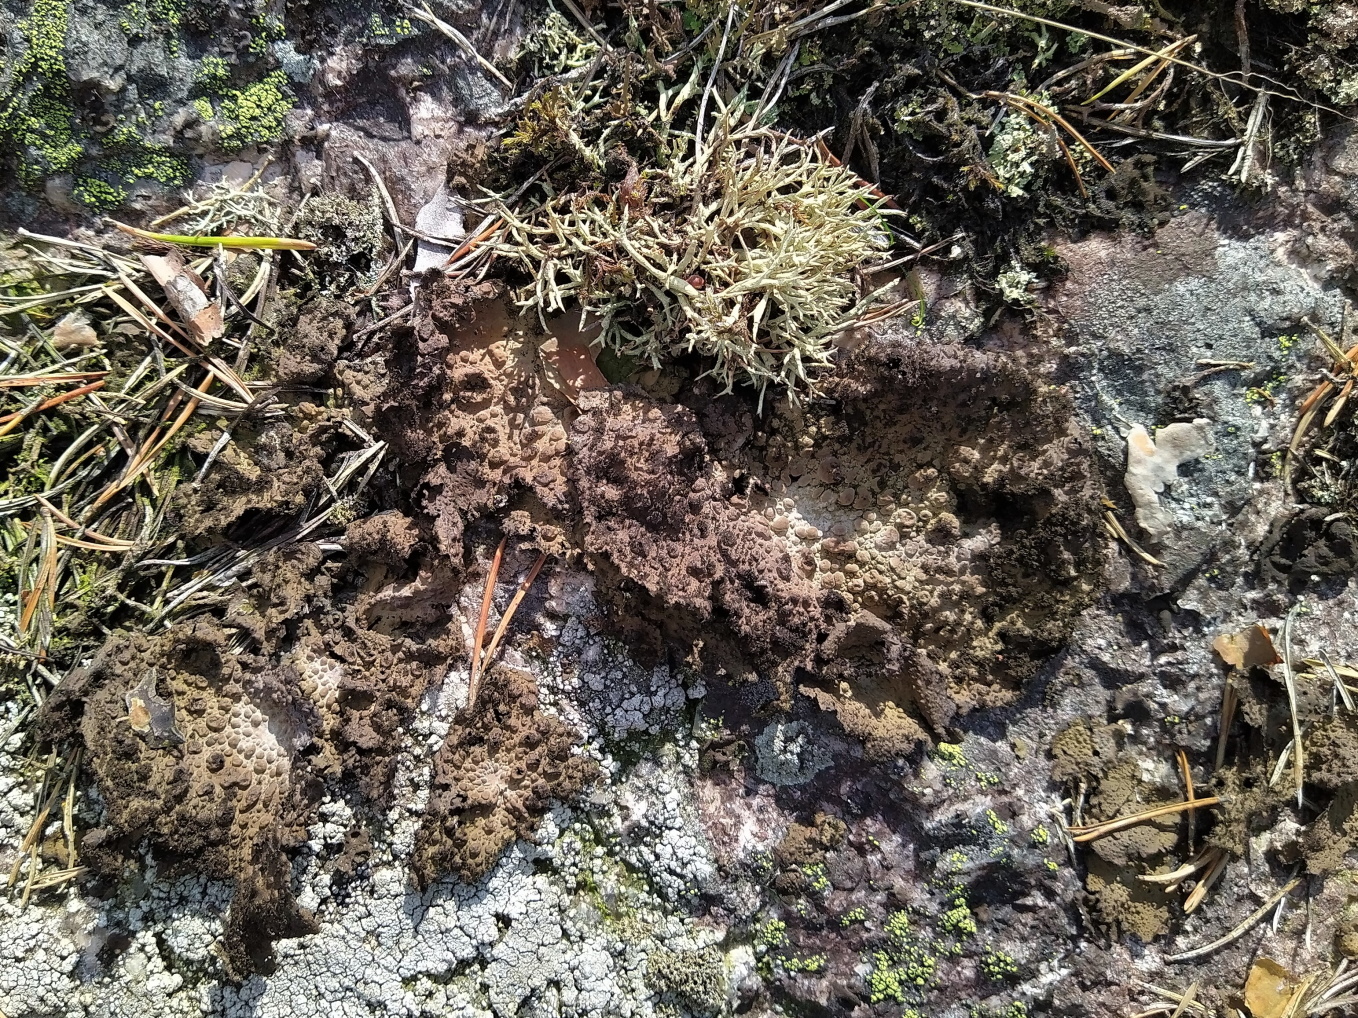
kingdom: Fungi
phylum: Ascomycota
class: Lecanoromycetes
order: Umbilicariales
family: Umbilicariaceae
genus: Lasallia
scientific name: Lasallia pustulata
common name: Blistered toadskin lichen
